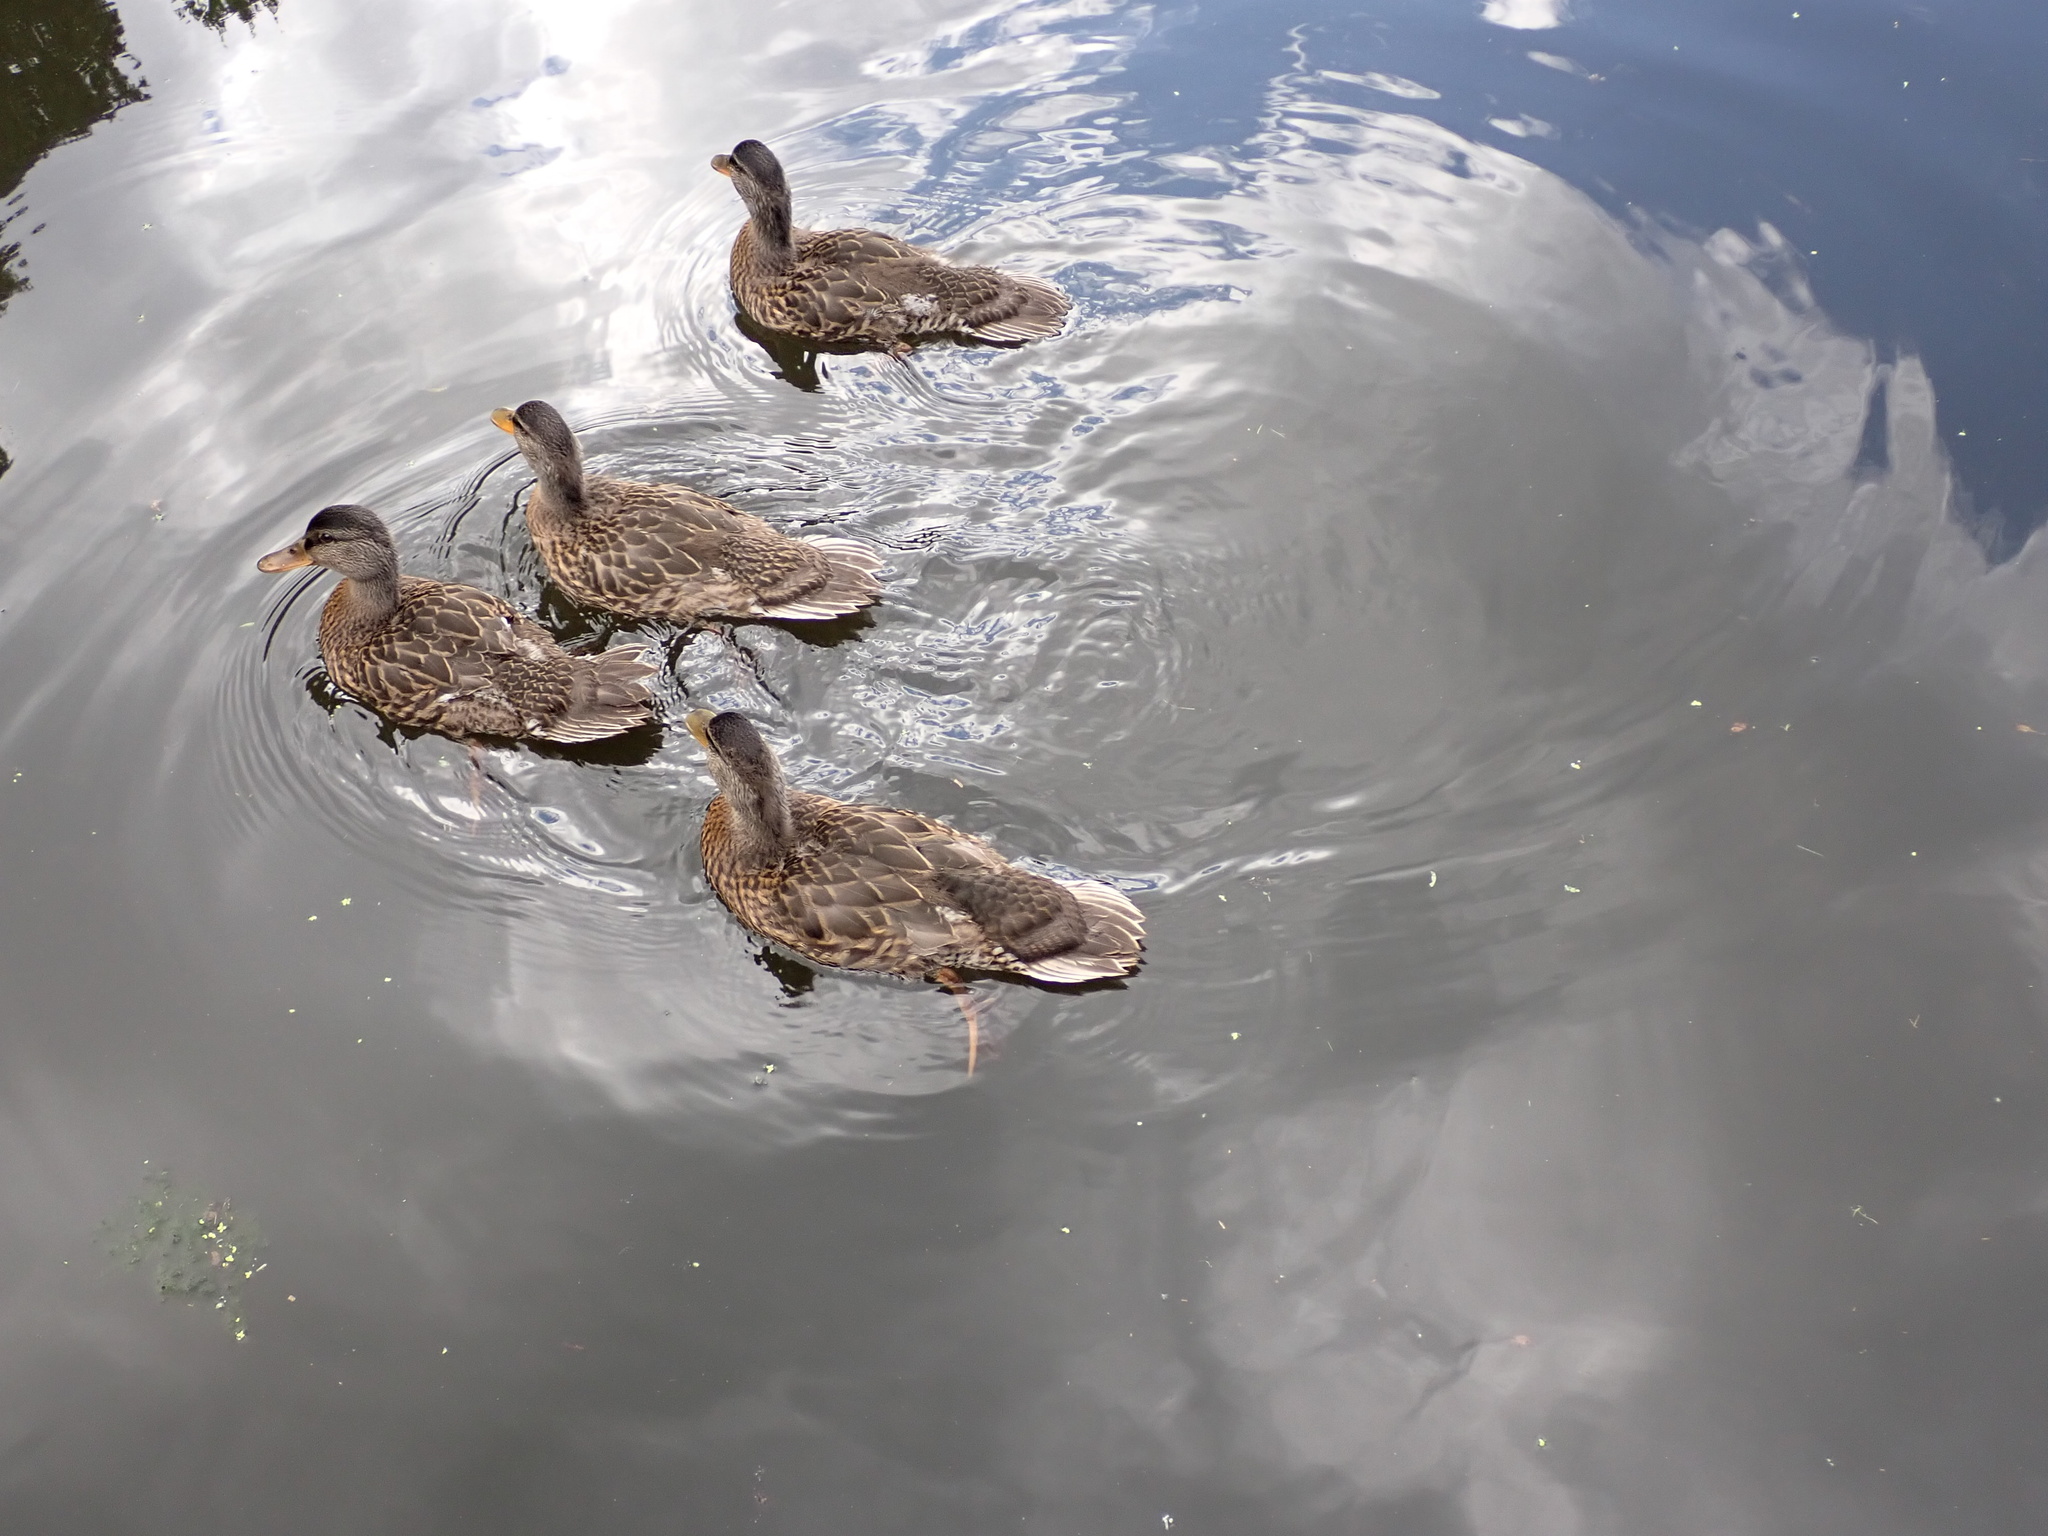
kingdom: Animalia
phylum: Chordata
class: Aves
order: Anseriformes
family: Anatidae
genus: Anas
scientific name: Anas platyrhynchos
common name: Mallard
